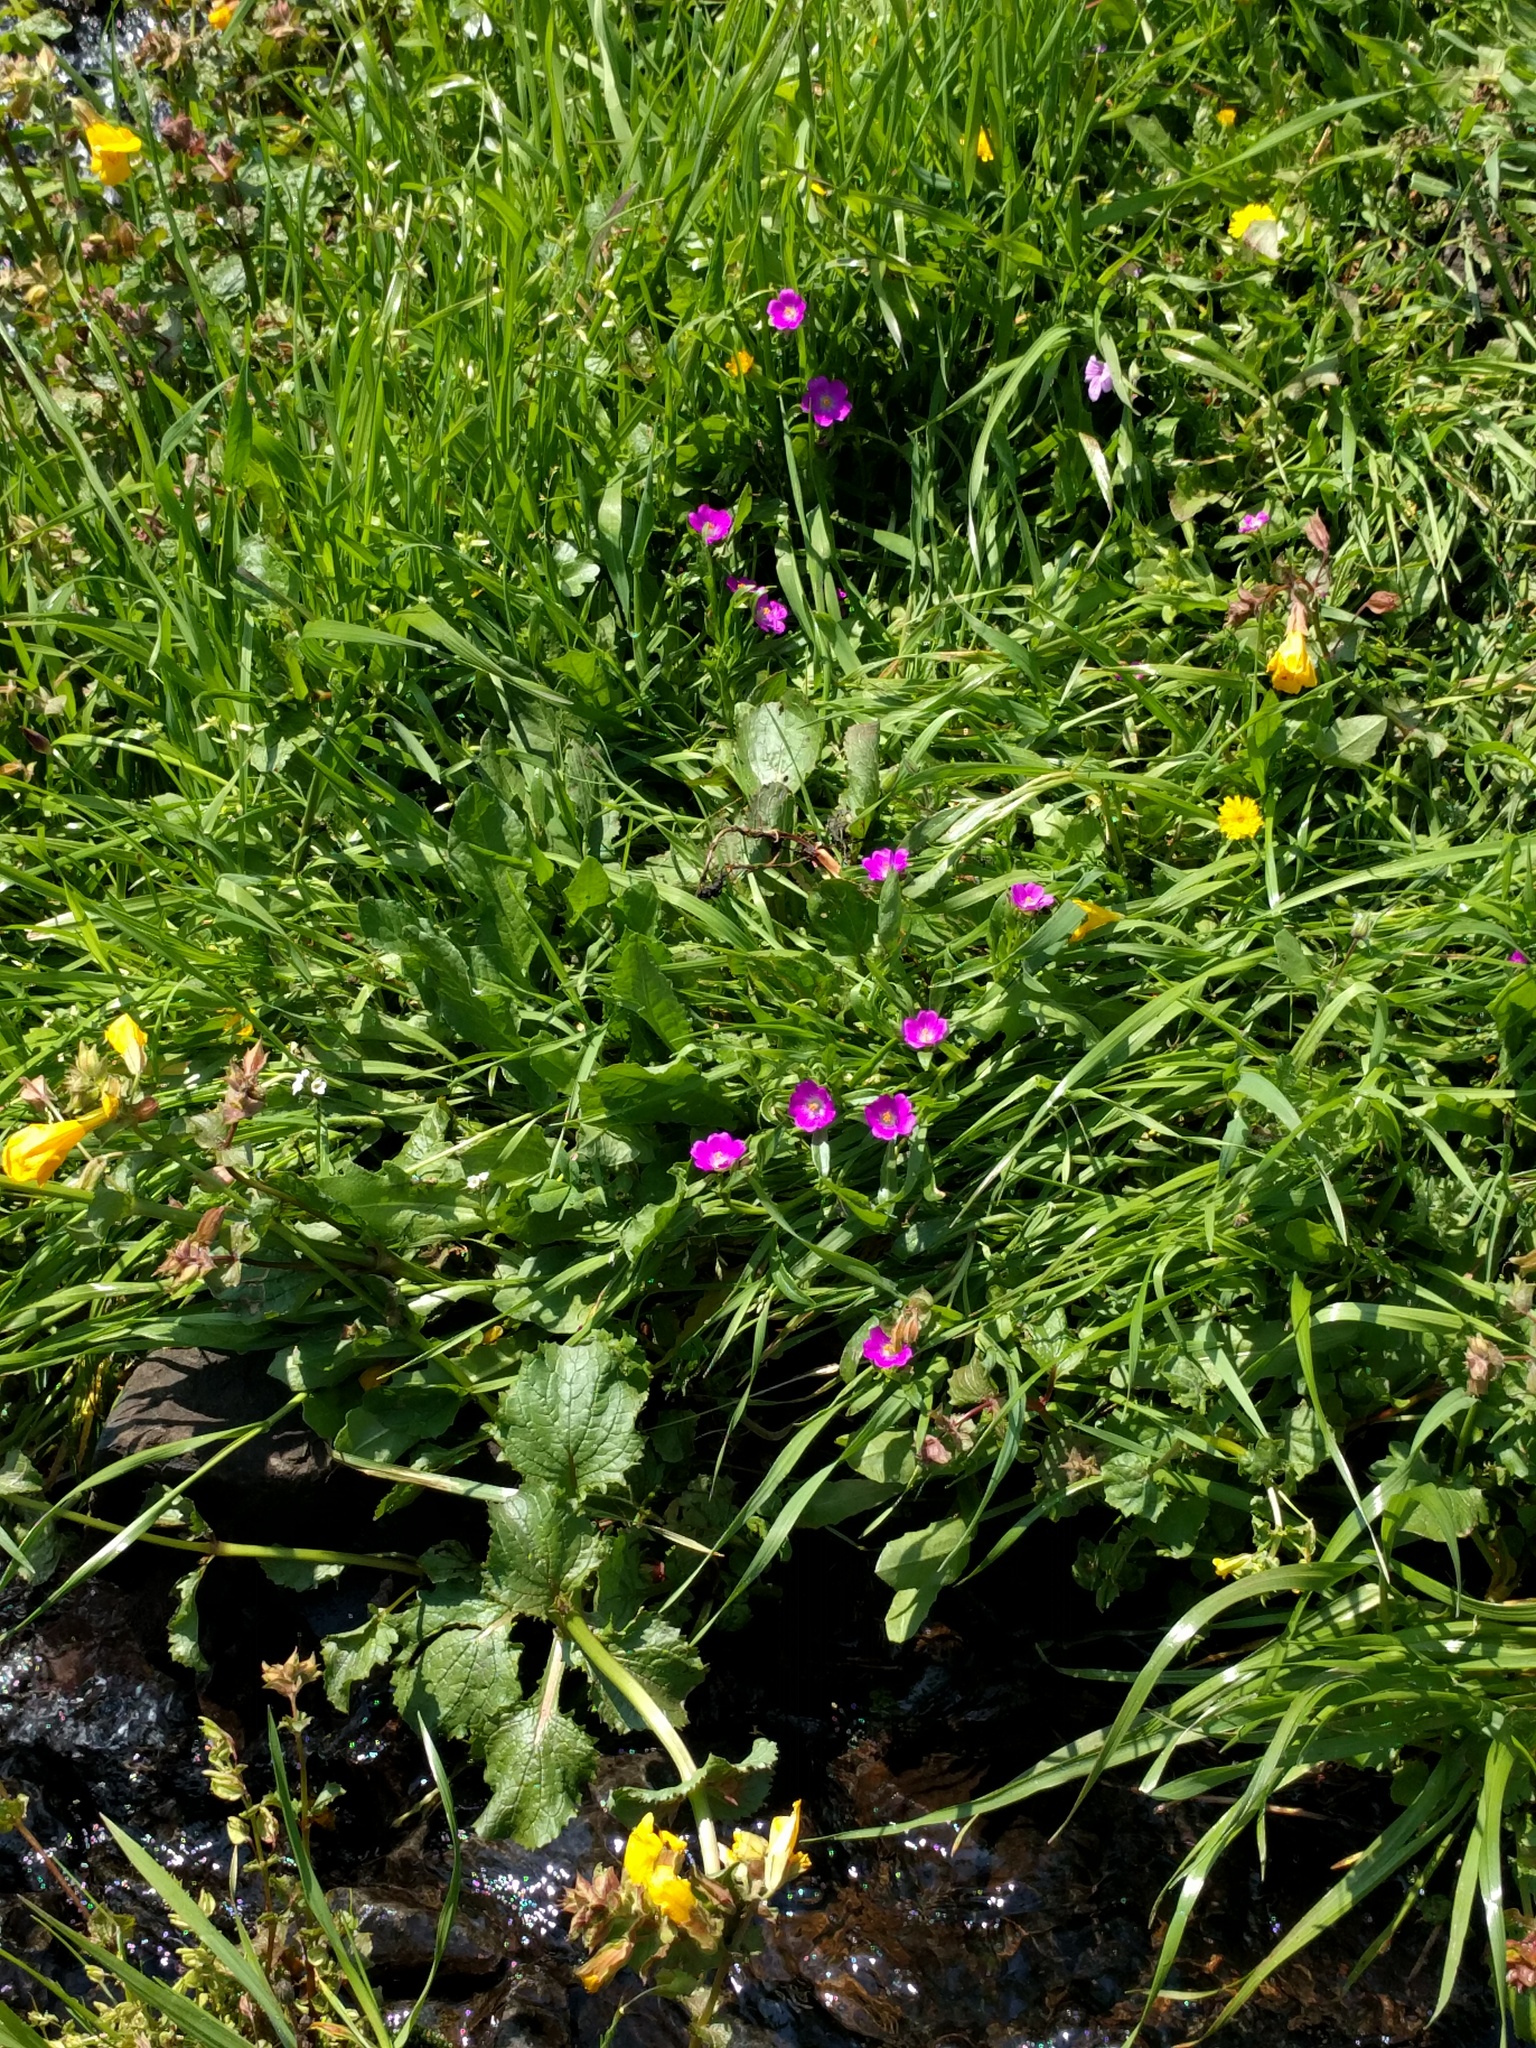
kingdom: Plantae
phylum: Tracheophyta
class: Magnoliopsida
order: Caryophyllales
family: Montiaceae
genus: Calandrinia
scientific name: Calandrinia menziesii
